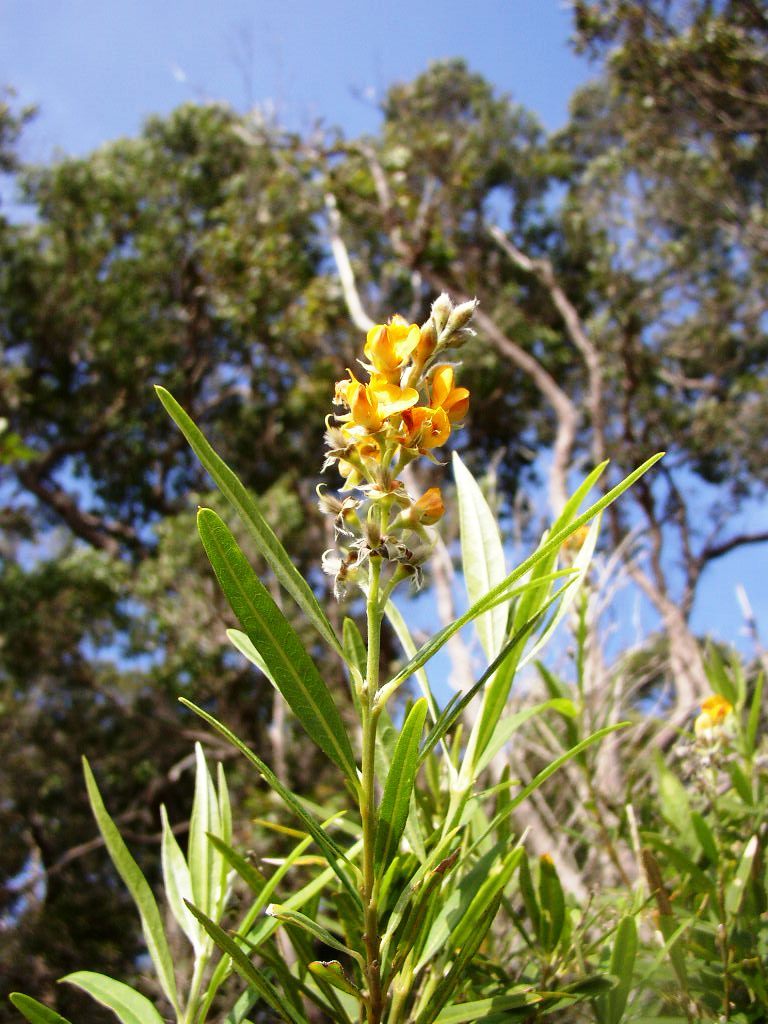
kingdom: Plantae
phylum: Tracheophyta
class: Magnoliopsida
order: Fabales
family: Fabaceae
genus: Callistachys
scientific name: Callistachys lanceolata
